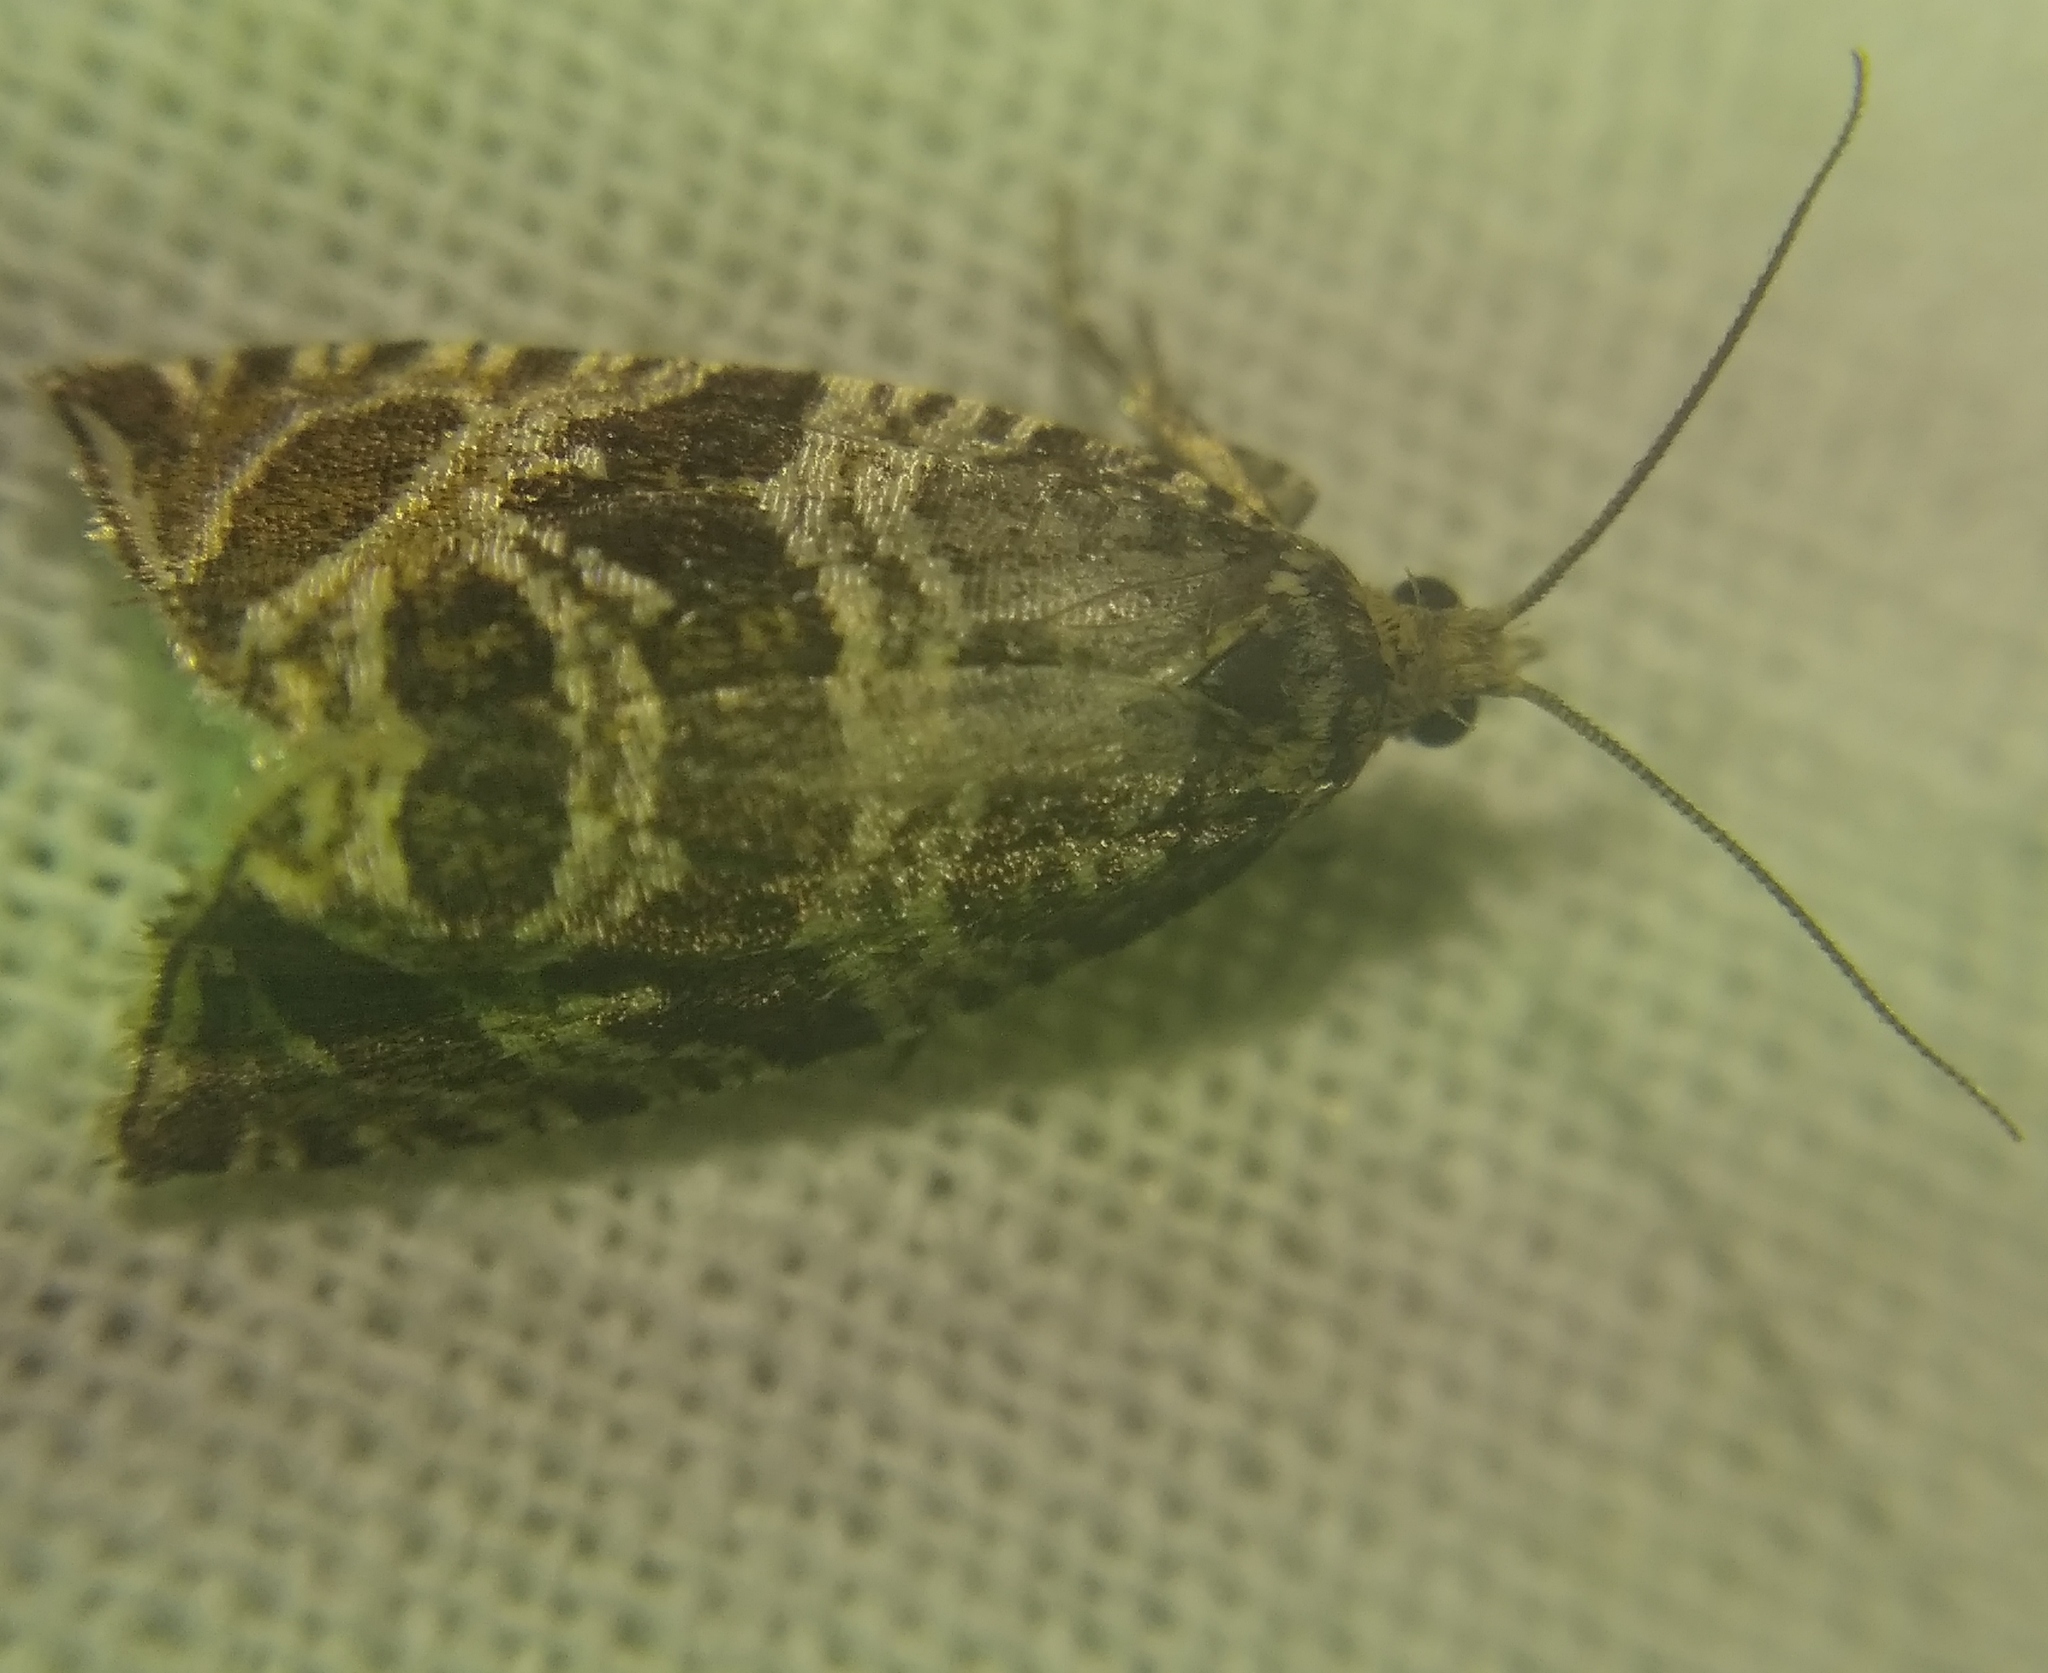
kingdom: Animalia
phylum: Arthropoda
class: Insecta
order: Lepidoptera
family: Tortricidae
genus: Syricoris
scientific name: Syricoris rivulana
